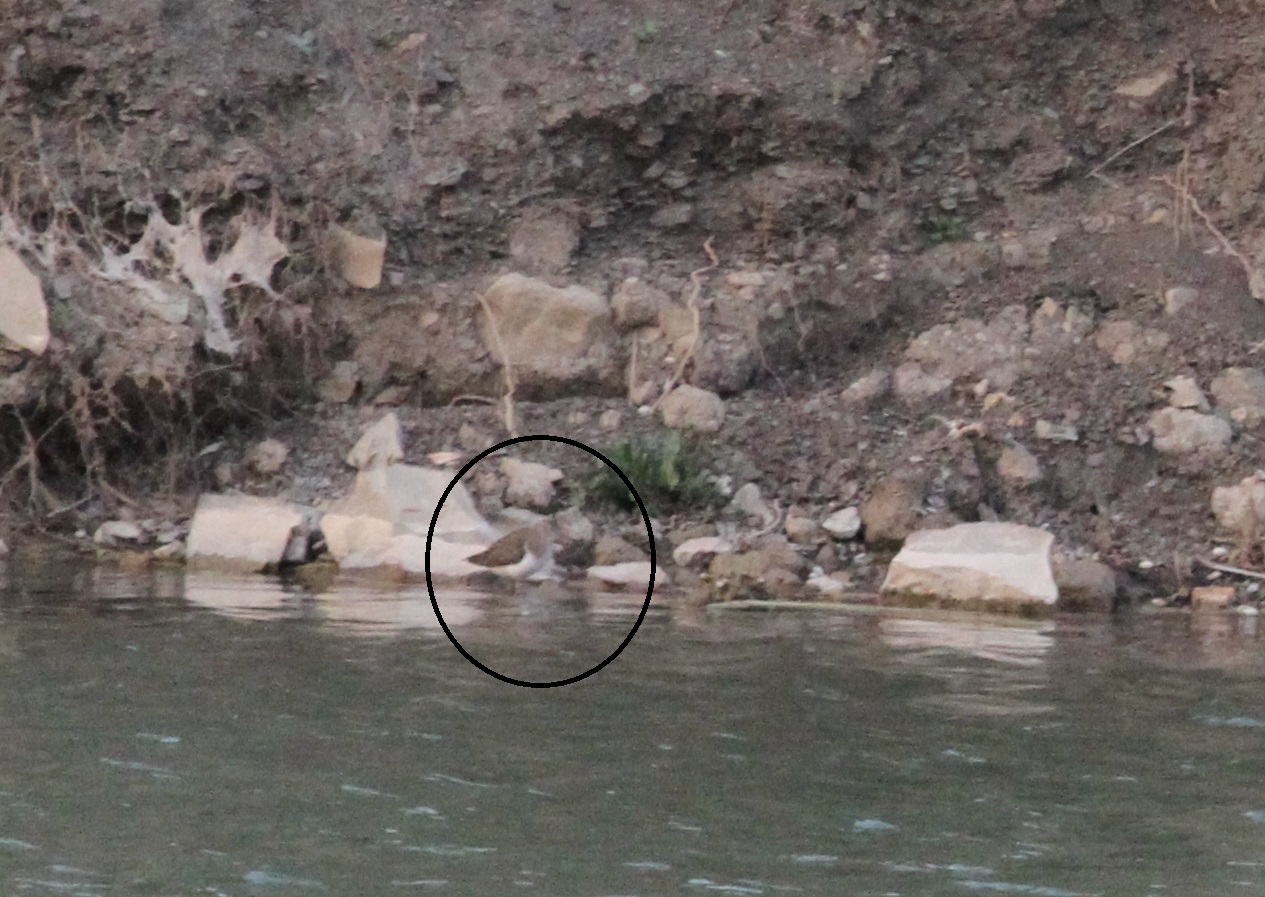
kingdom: Animalia
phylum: Chordata
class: Aves
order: Charadriiformes
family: Scolopacidae
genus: Actitis
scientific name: Actitis hypoleucos
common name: Common sandpiper
